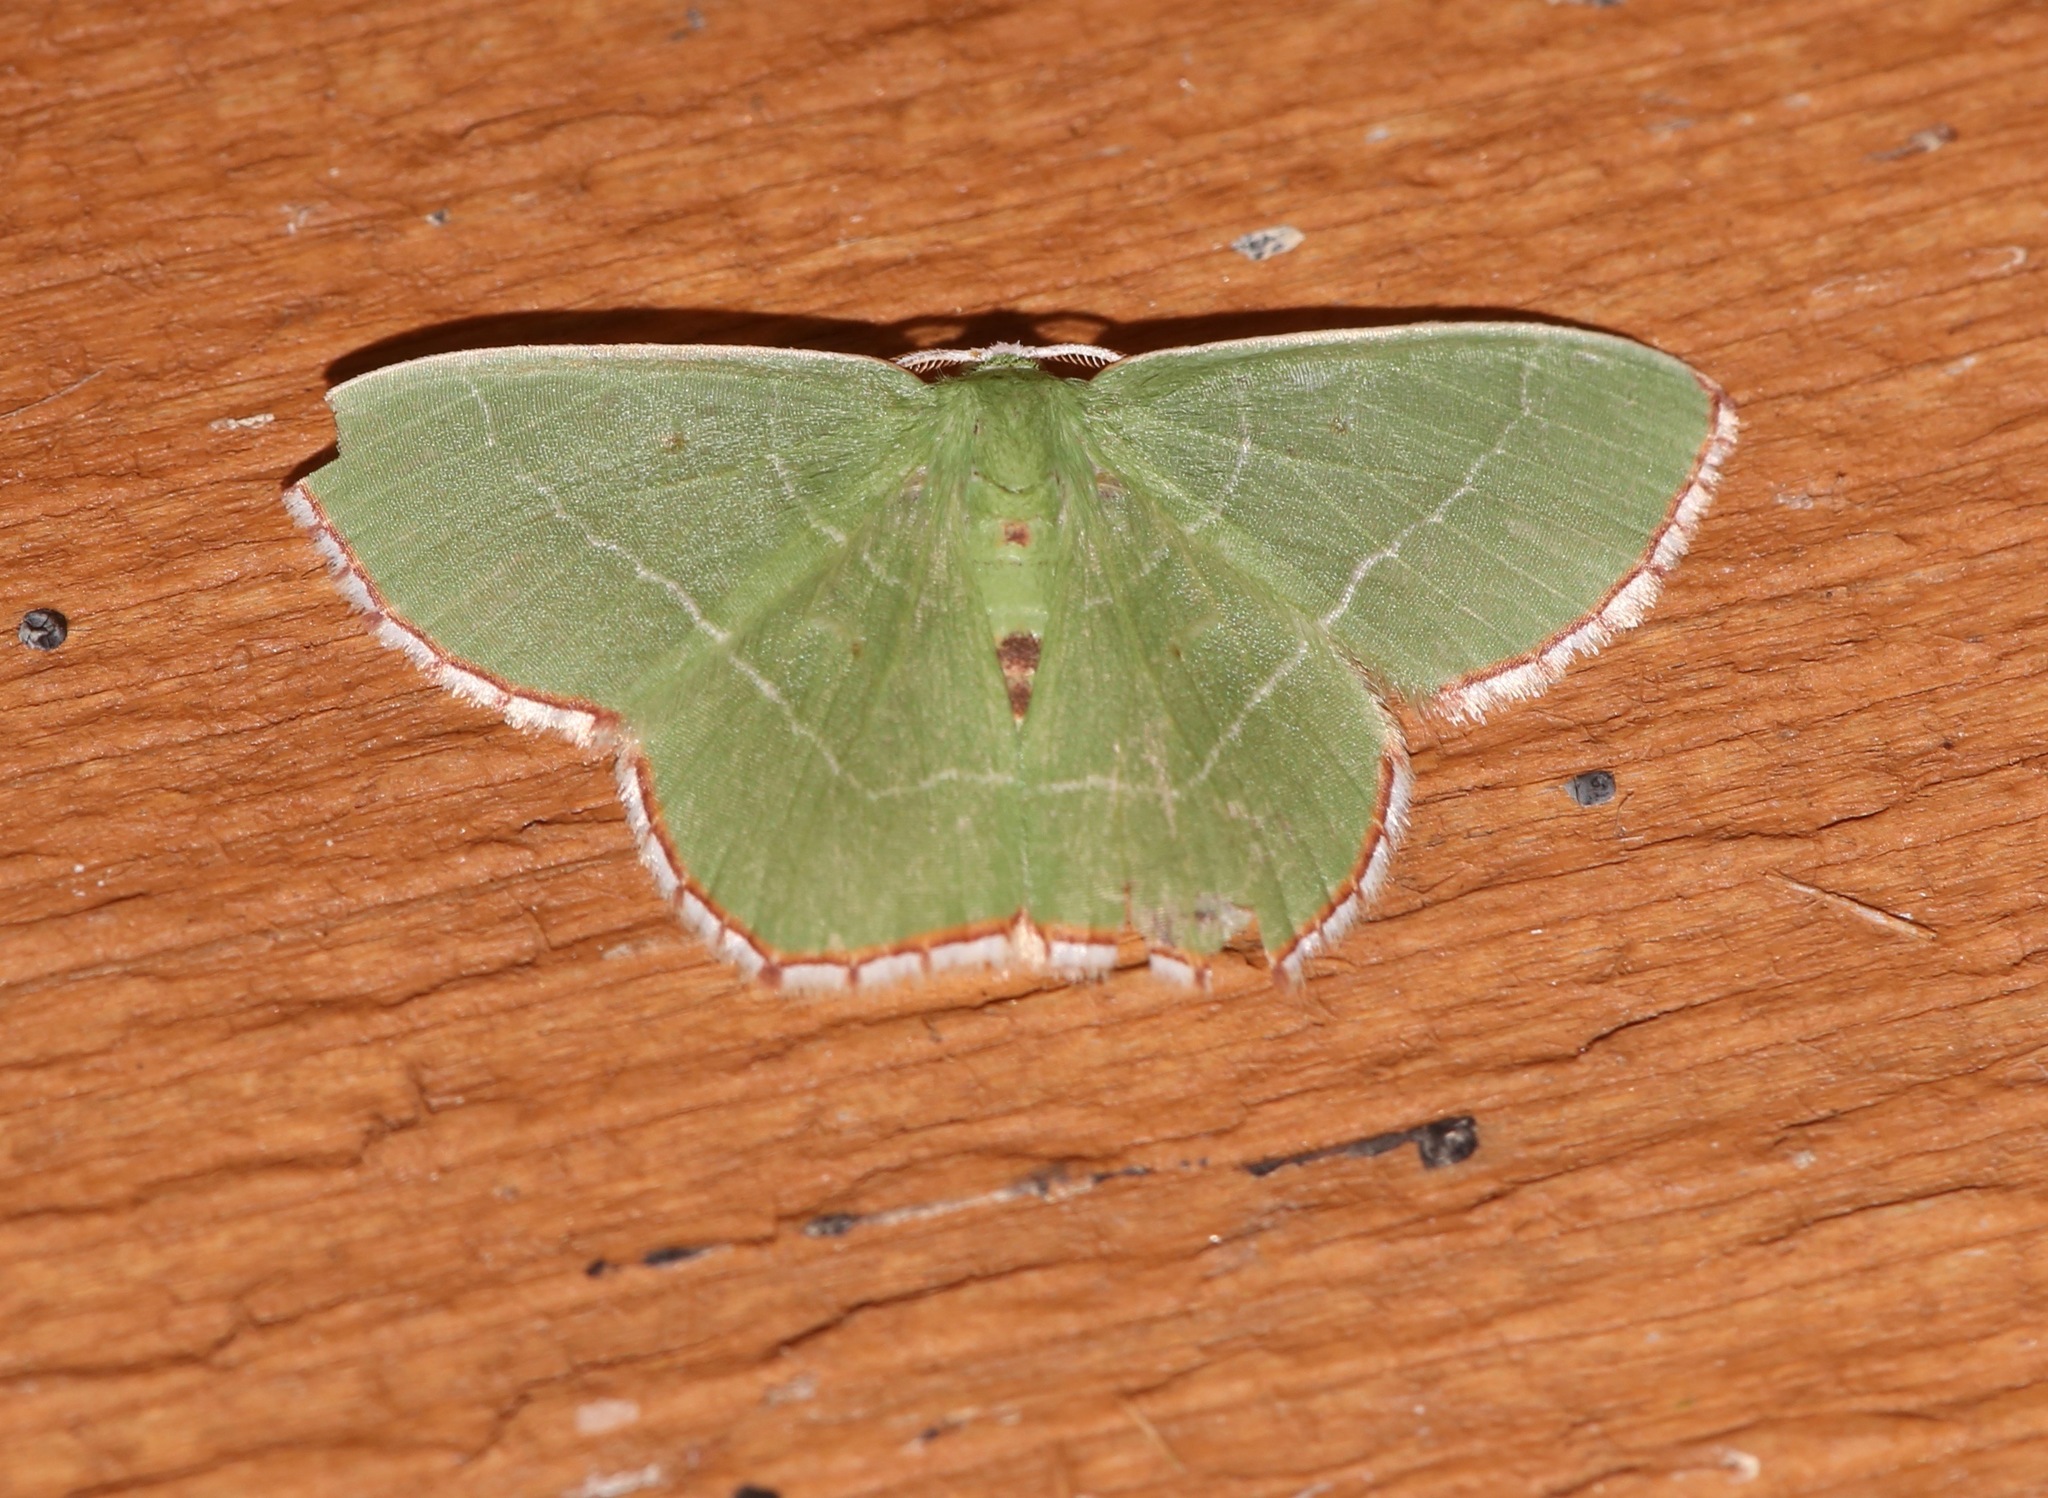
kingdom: Animalia
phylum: Arthropoda
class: Insecta
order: Lepidoptera
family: Geometridae
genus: Nemoria
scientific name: Nemoria saturiba
